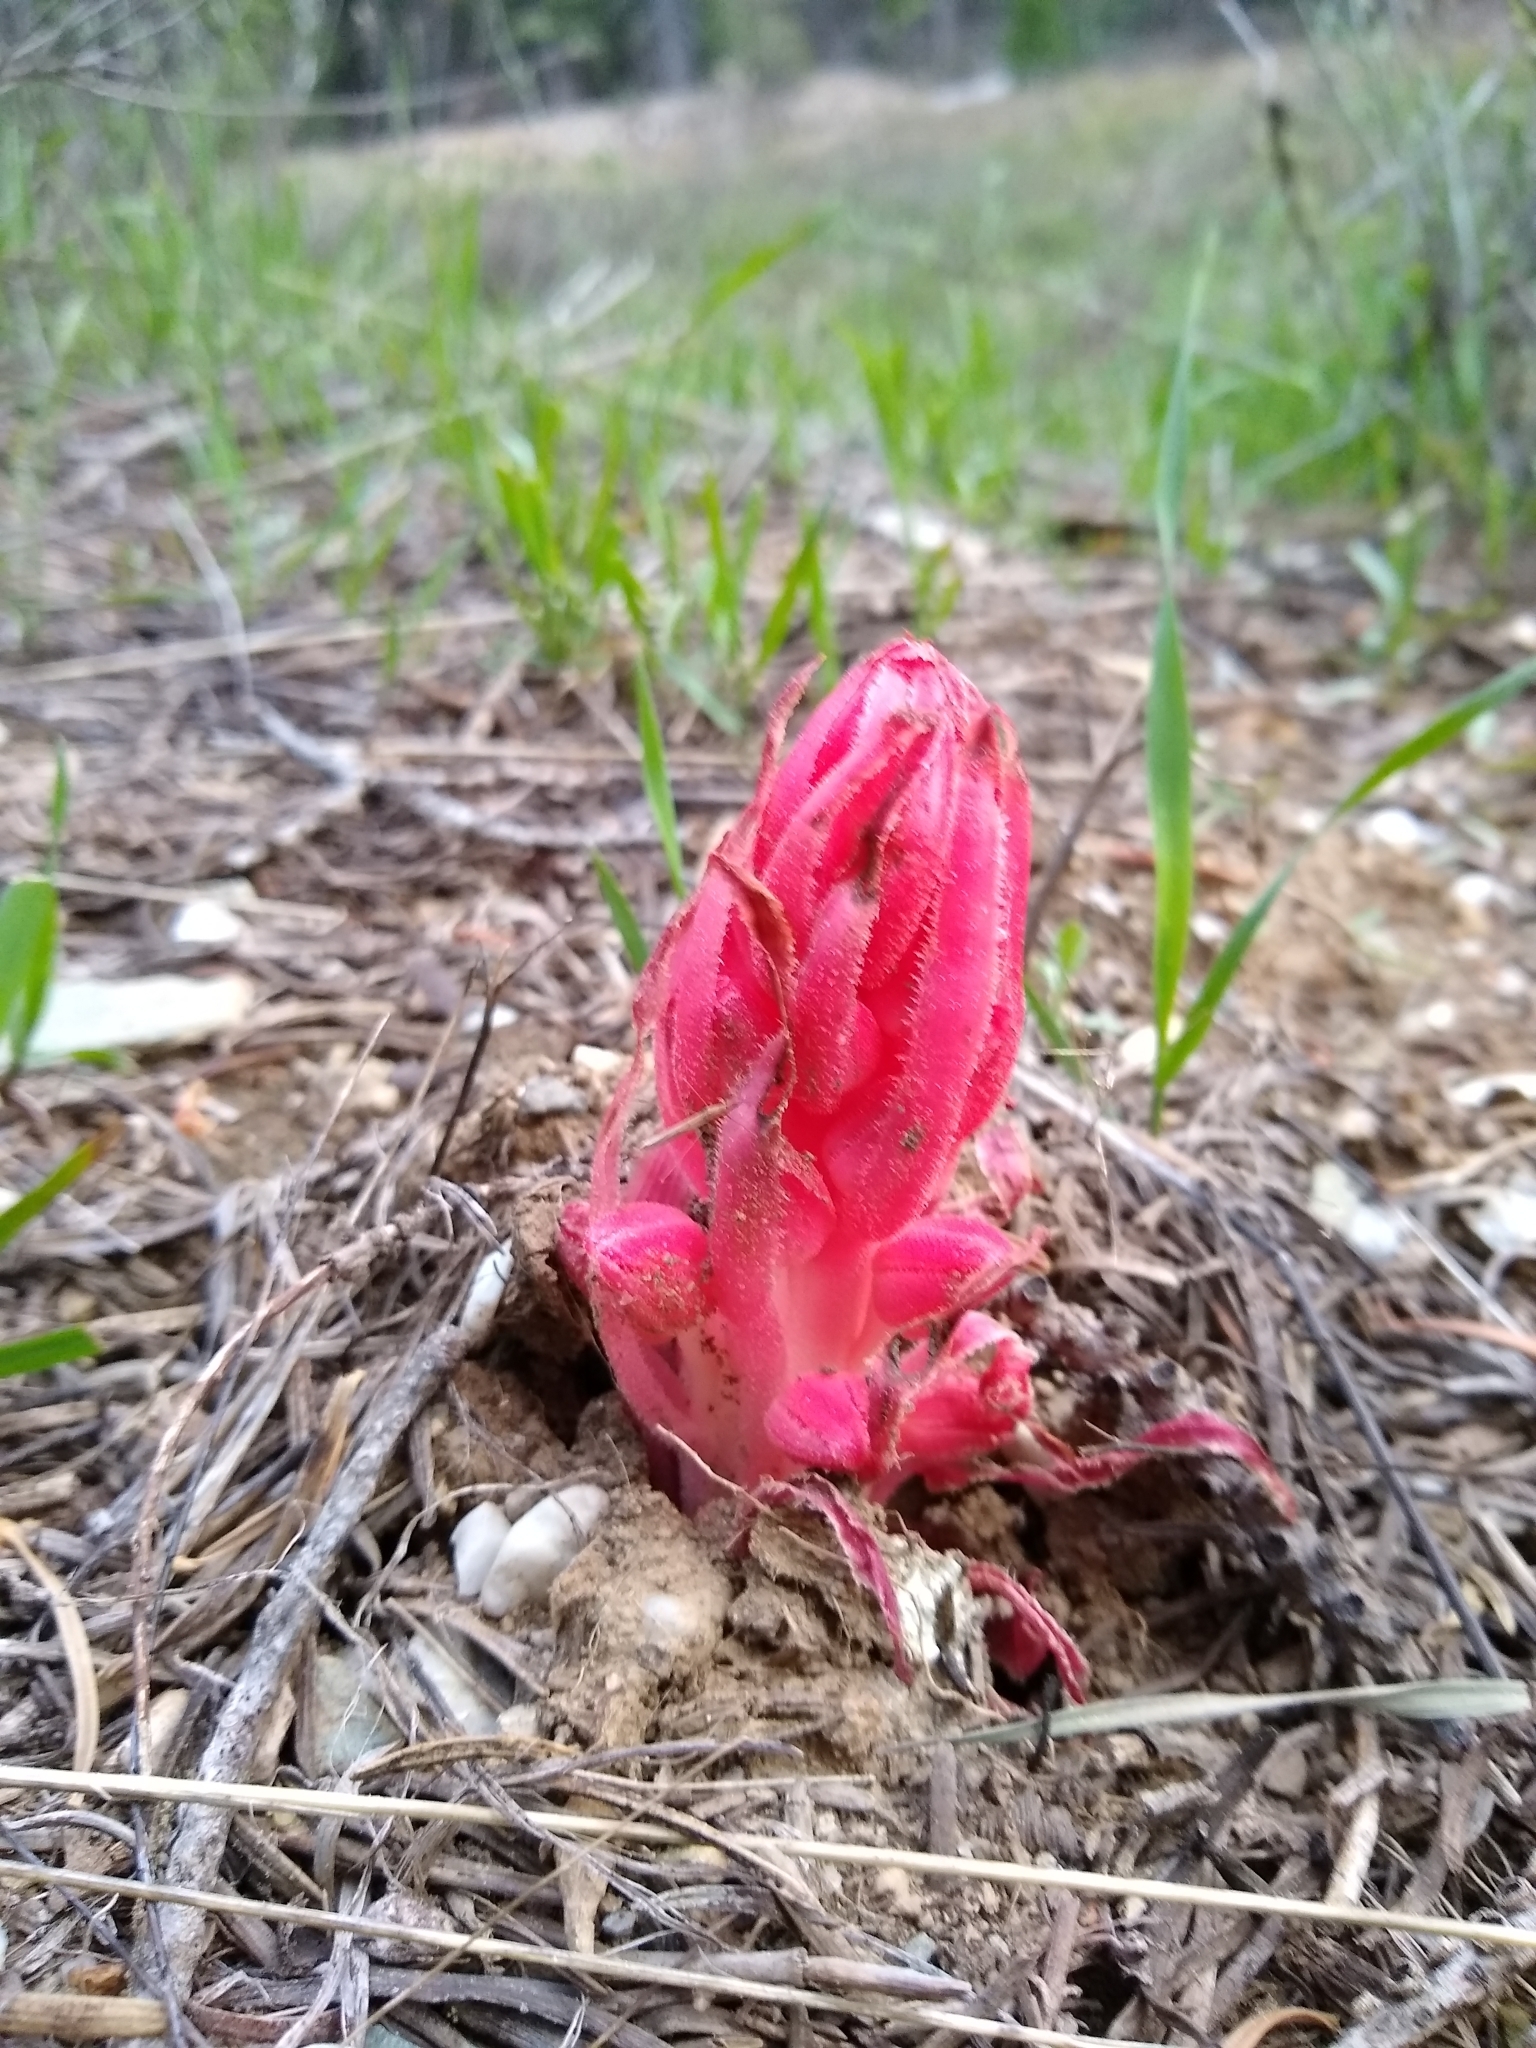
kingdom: Plantae
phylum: Tracheophyta
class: Magnoliopsida
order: Ericales
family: Ericaceae
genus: Sarcodes
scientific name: Sarcodes sanguinea
